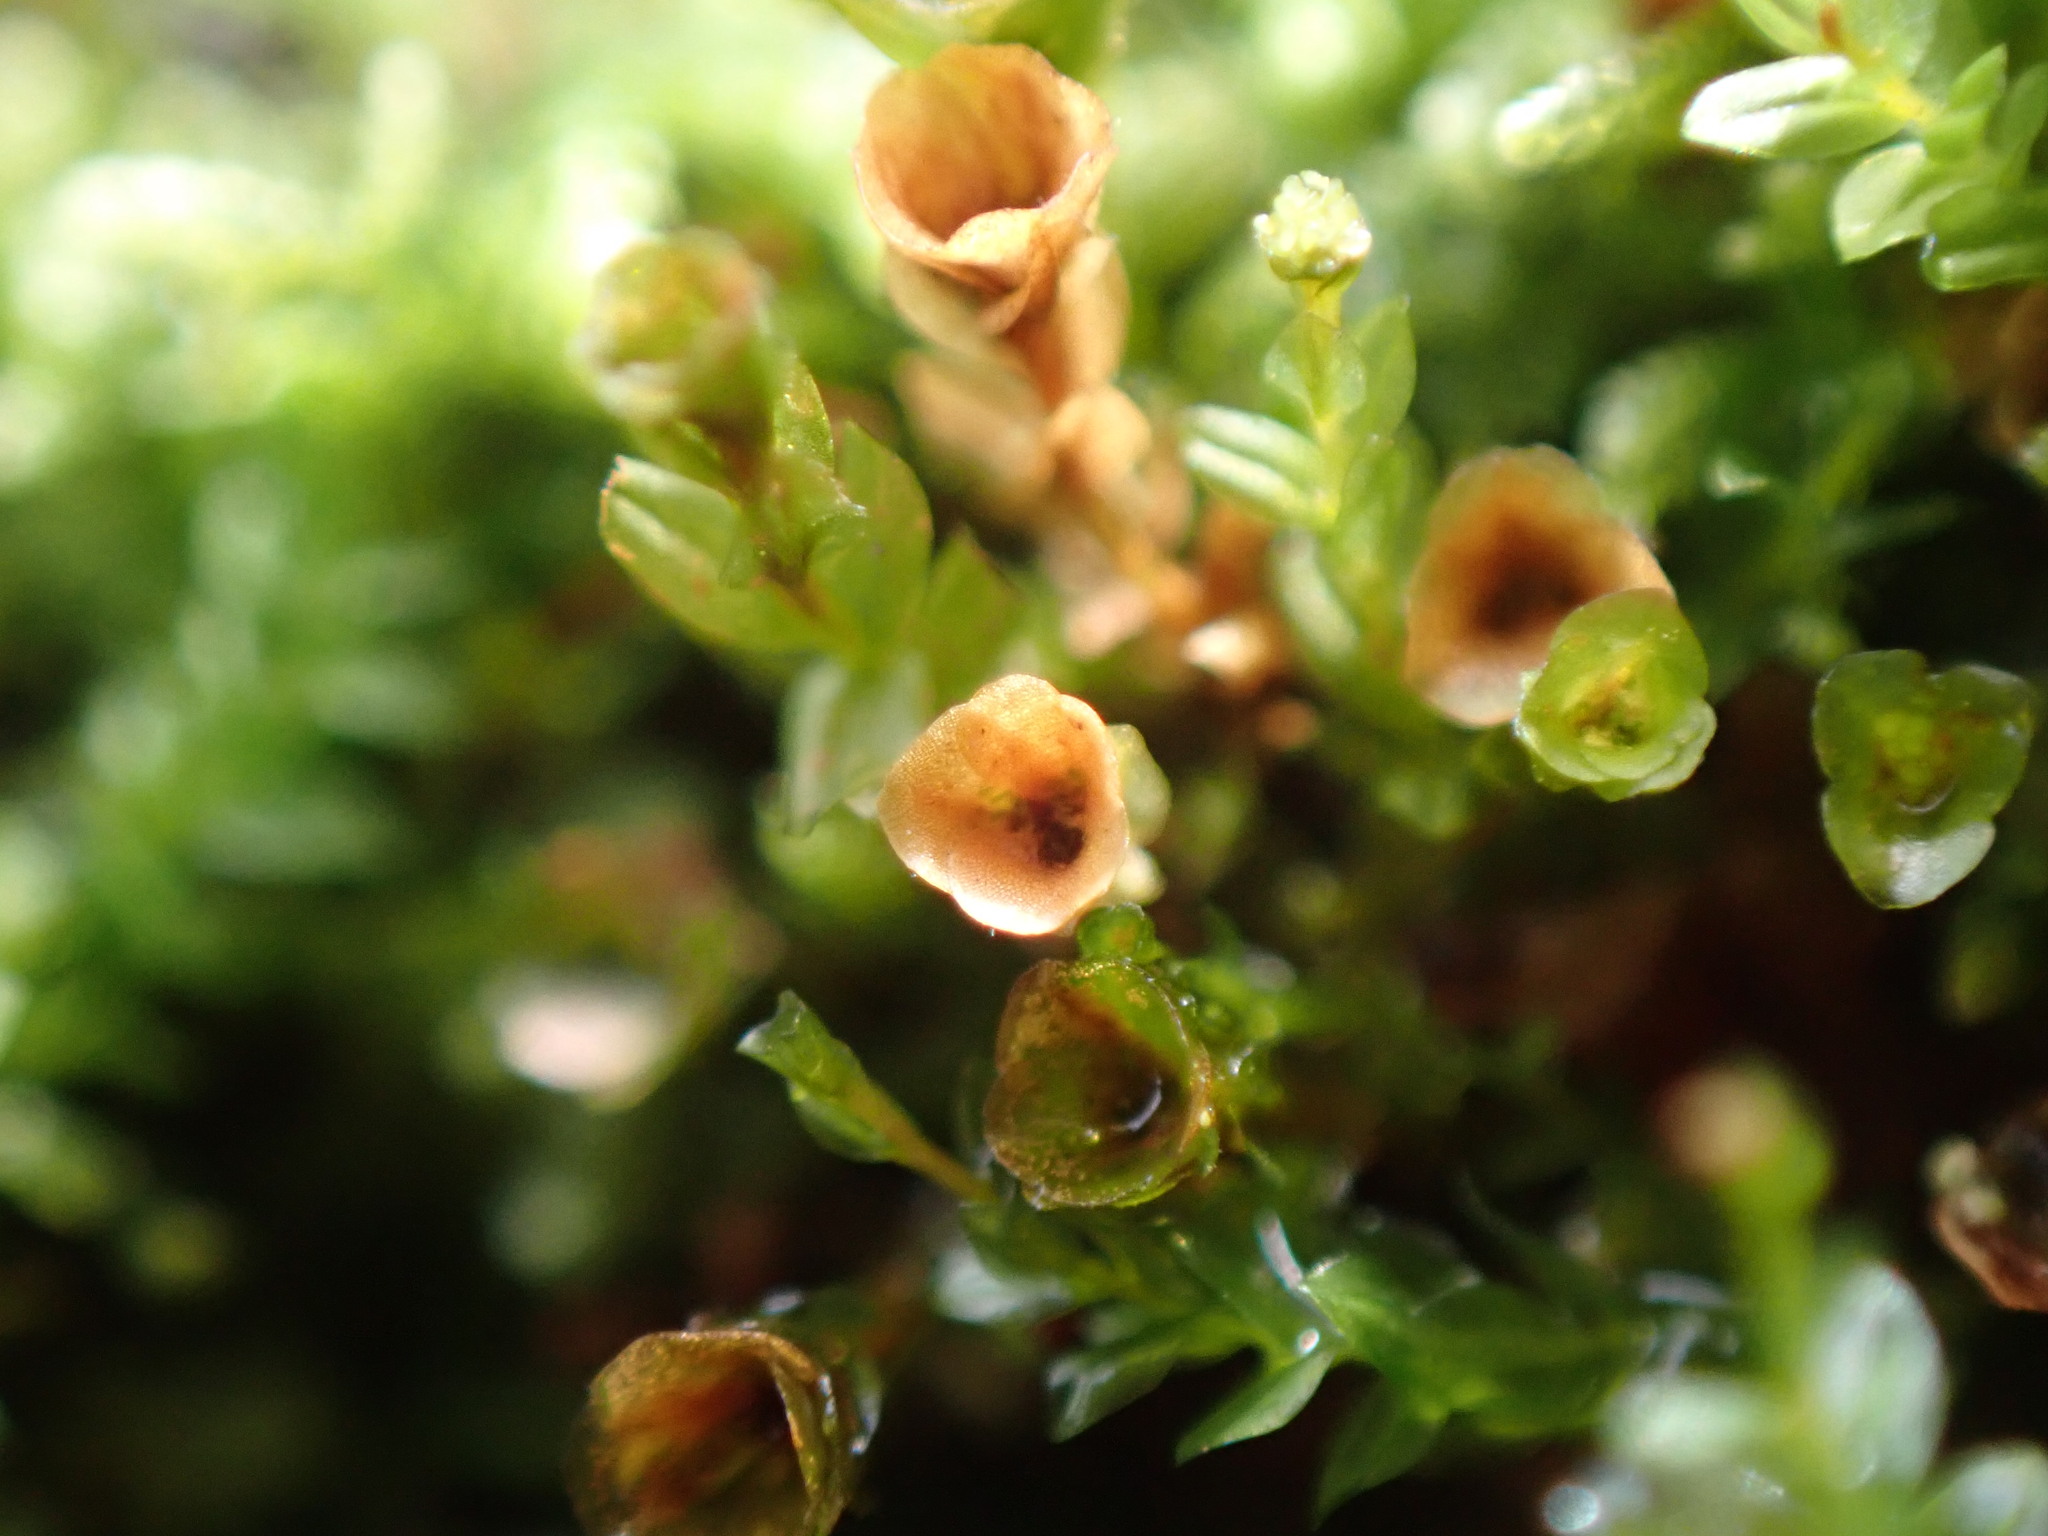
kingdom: Plantae
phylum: Bryophyta
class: Polytrichopsida
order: Tetraphidales
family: Tetraphidaceae
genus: Tetraphis
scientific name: Tetraphis pellucida
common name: Common four-toothed moss
